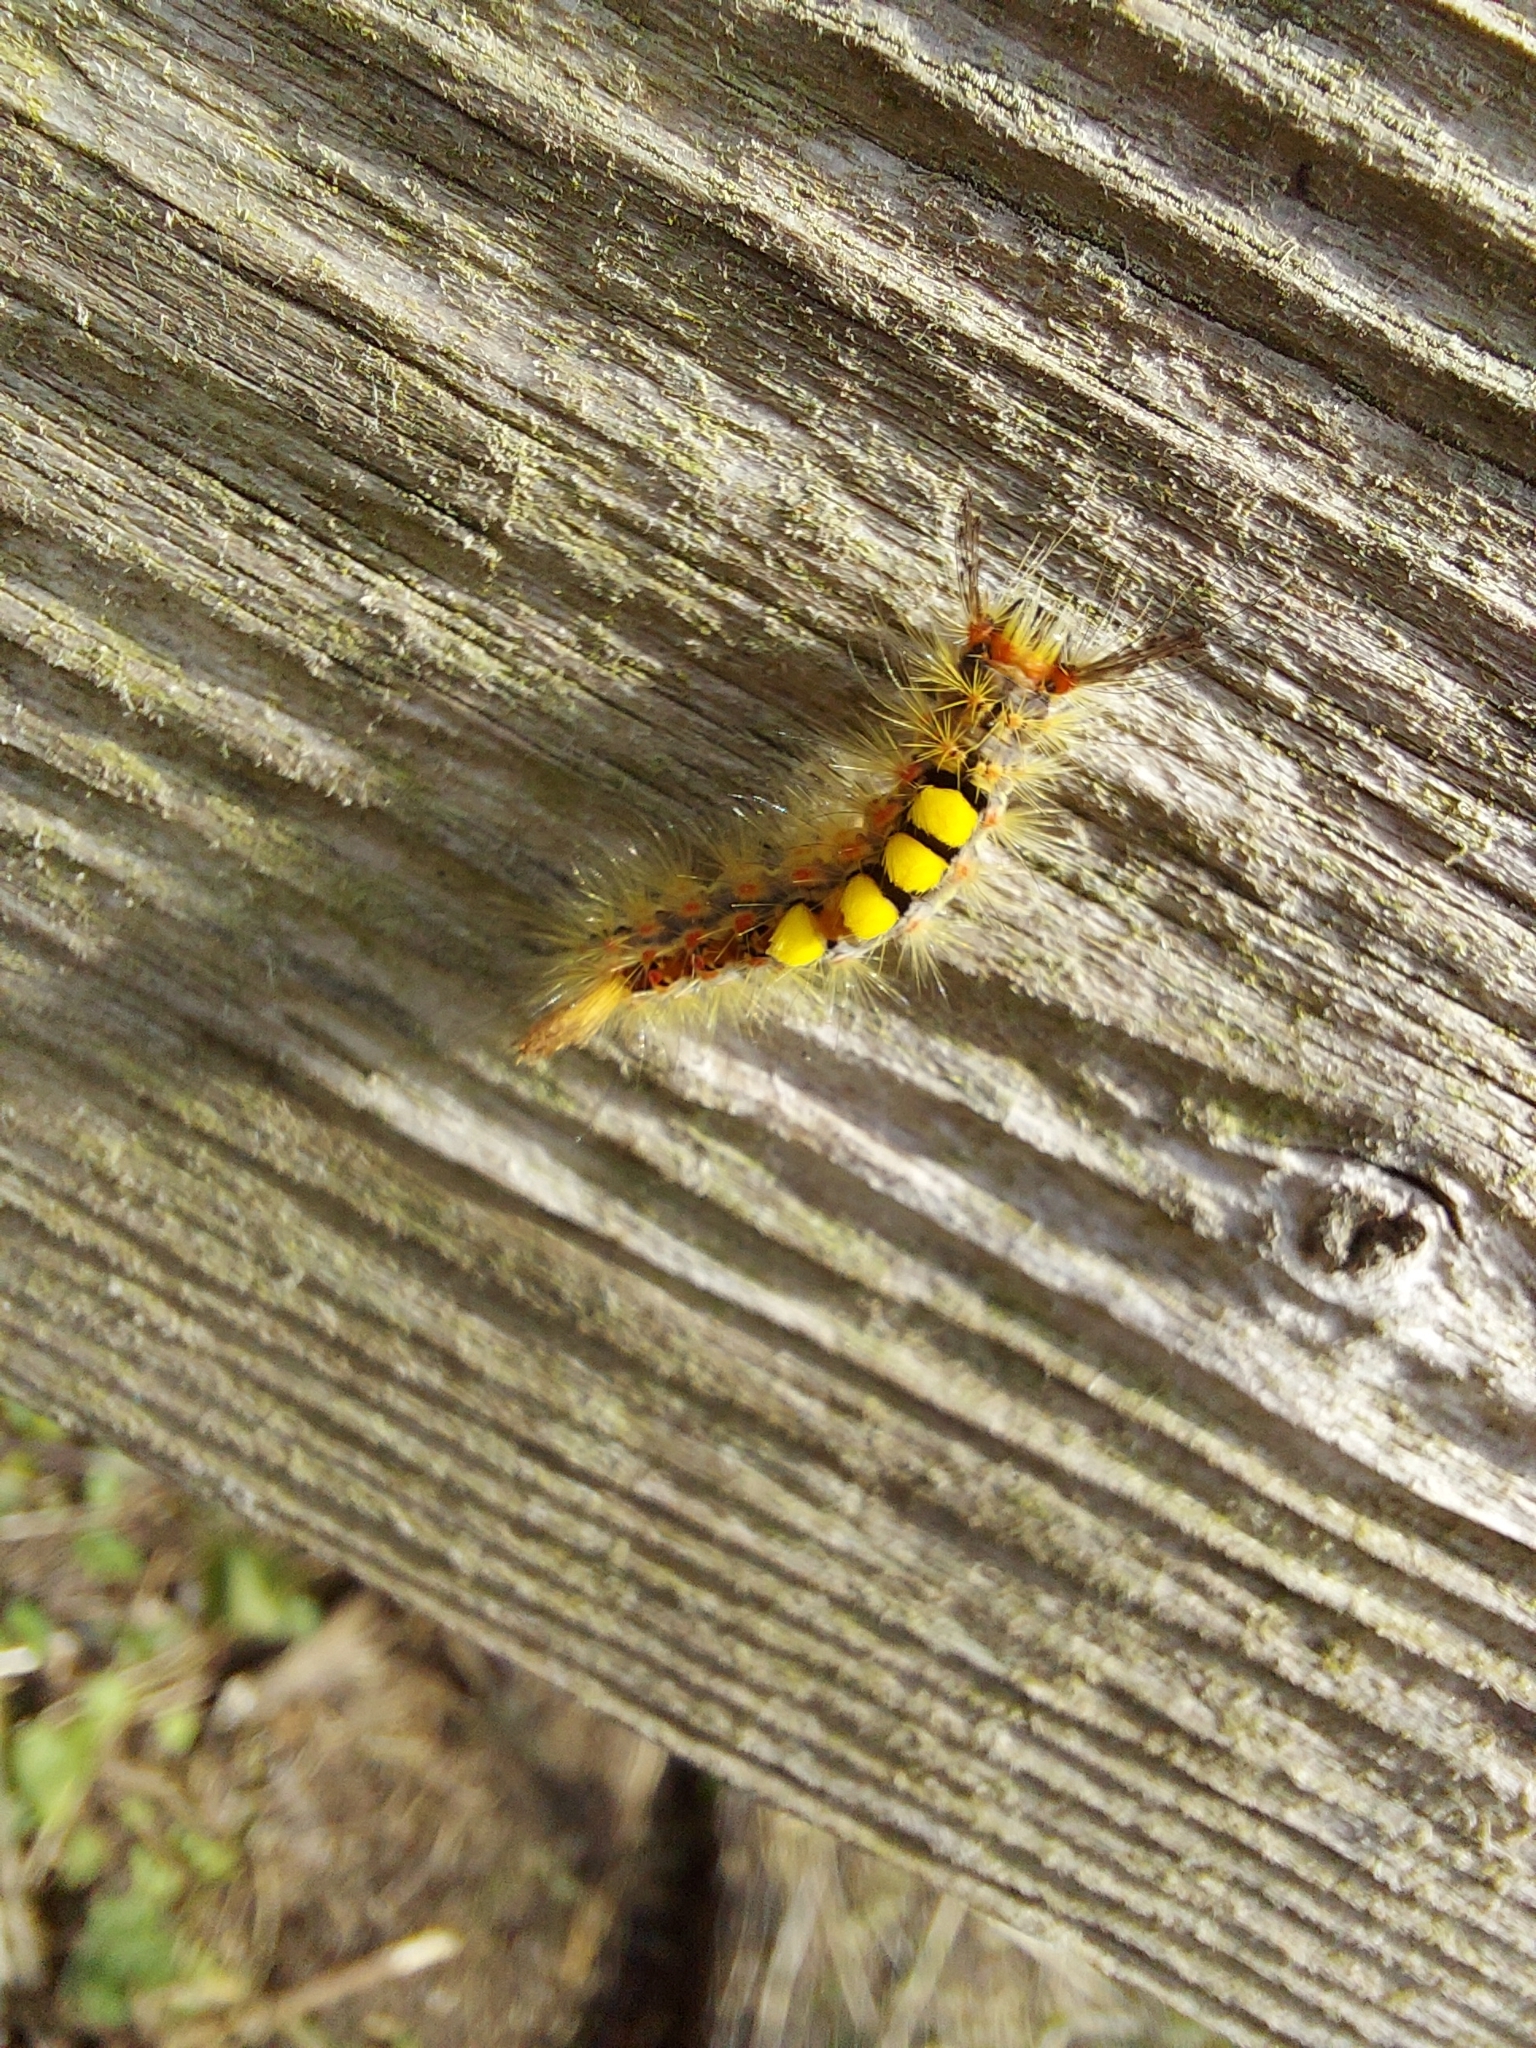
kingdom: Animalia
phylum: Arthropoda
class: Insecta
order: Lepidoptera
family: Erebidae
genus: Orgyia
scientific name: Orgyia antiqua
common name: Vapourer
